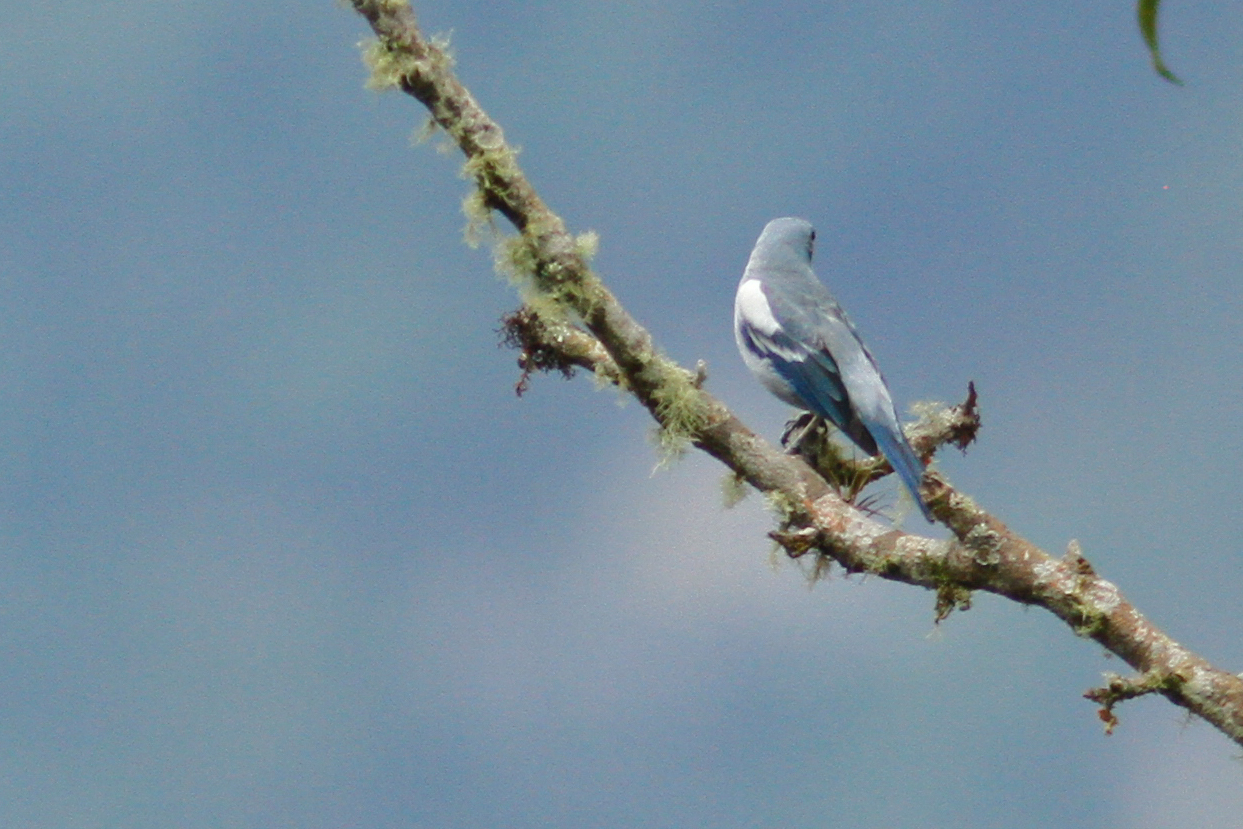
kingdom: Animalia
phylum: Chordata
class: Aves
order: Passeriformes
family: Thraupidae
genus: Thraupis
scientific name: Thraupis episcopus
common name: Blue-grey tanager
